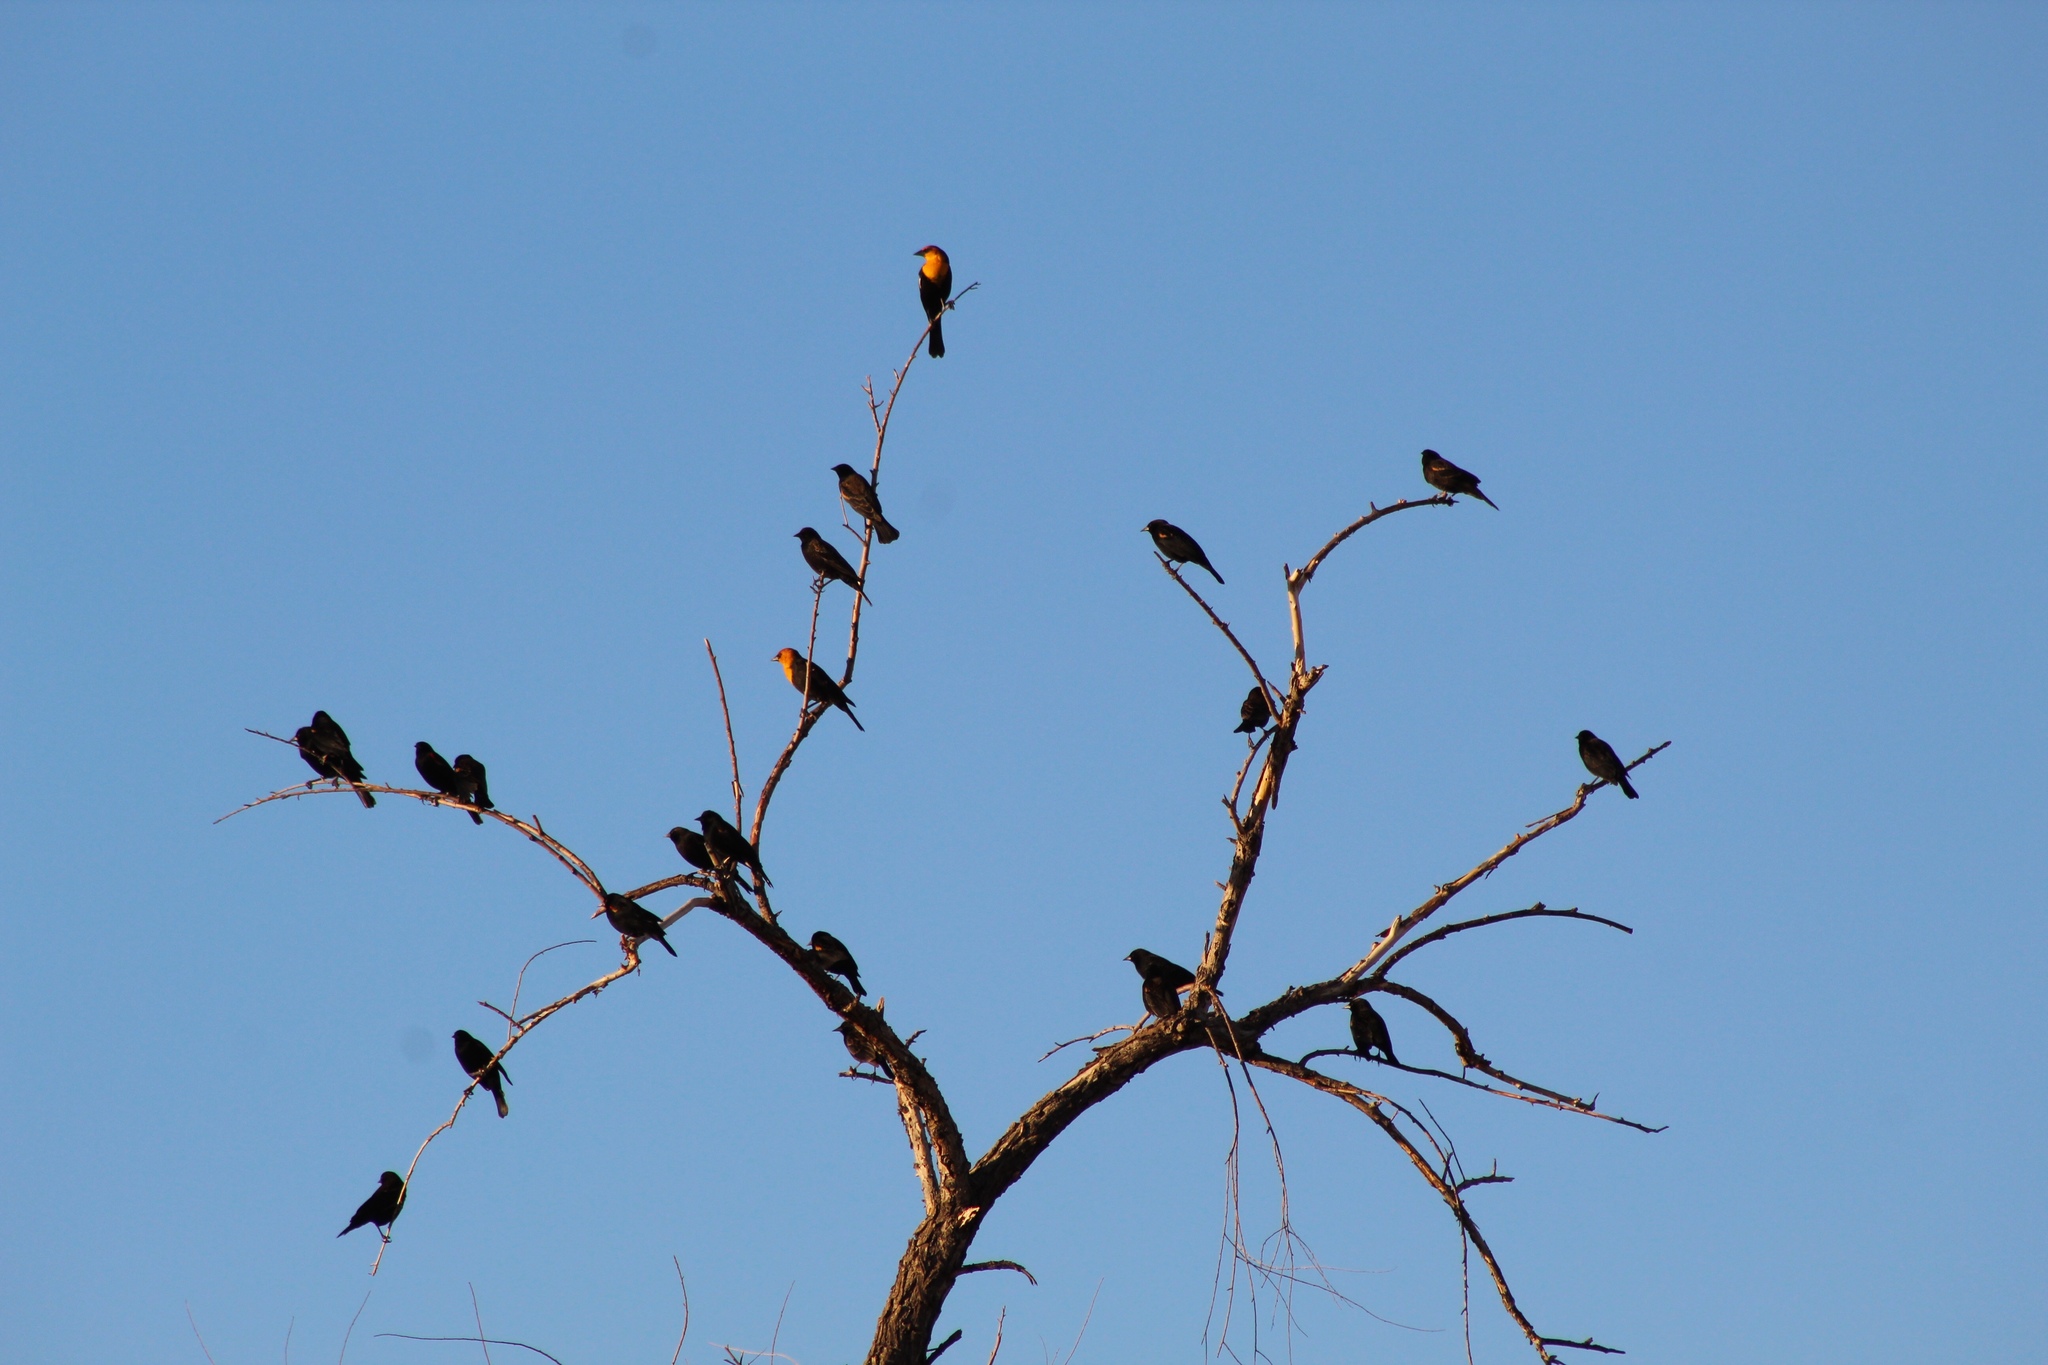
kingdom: Animalia
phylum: Chordata
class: Aves
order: Passeriformes
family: Icteridae
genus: Agelaius
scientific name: Agelaius phoeniceus
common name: Red-winged blackbird
